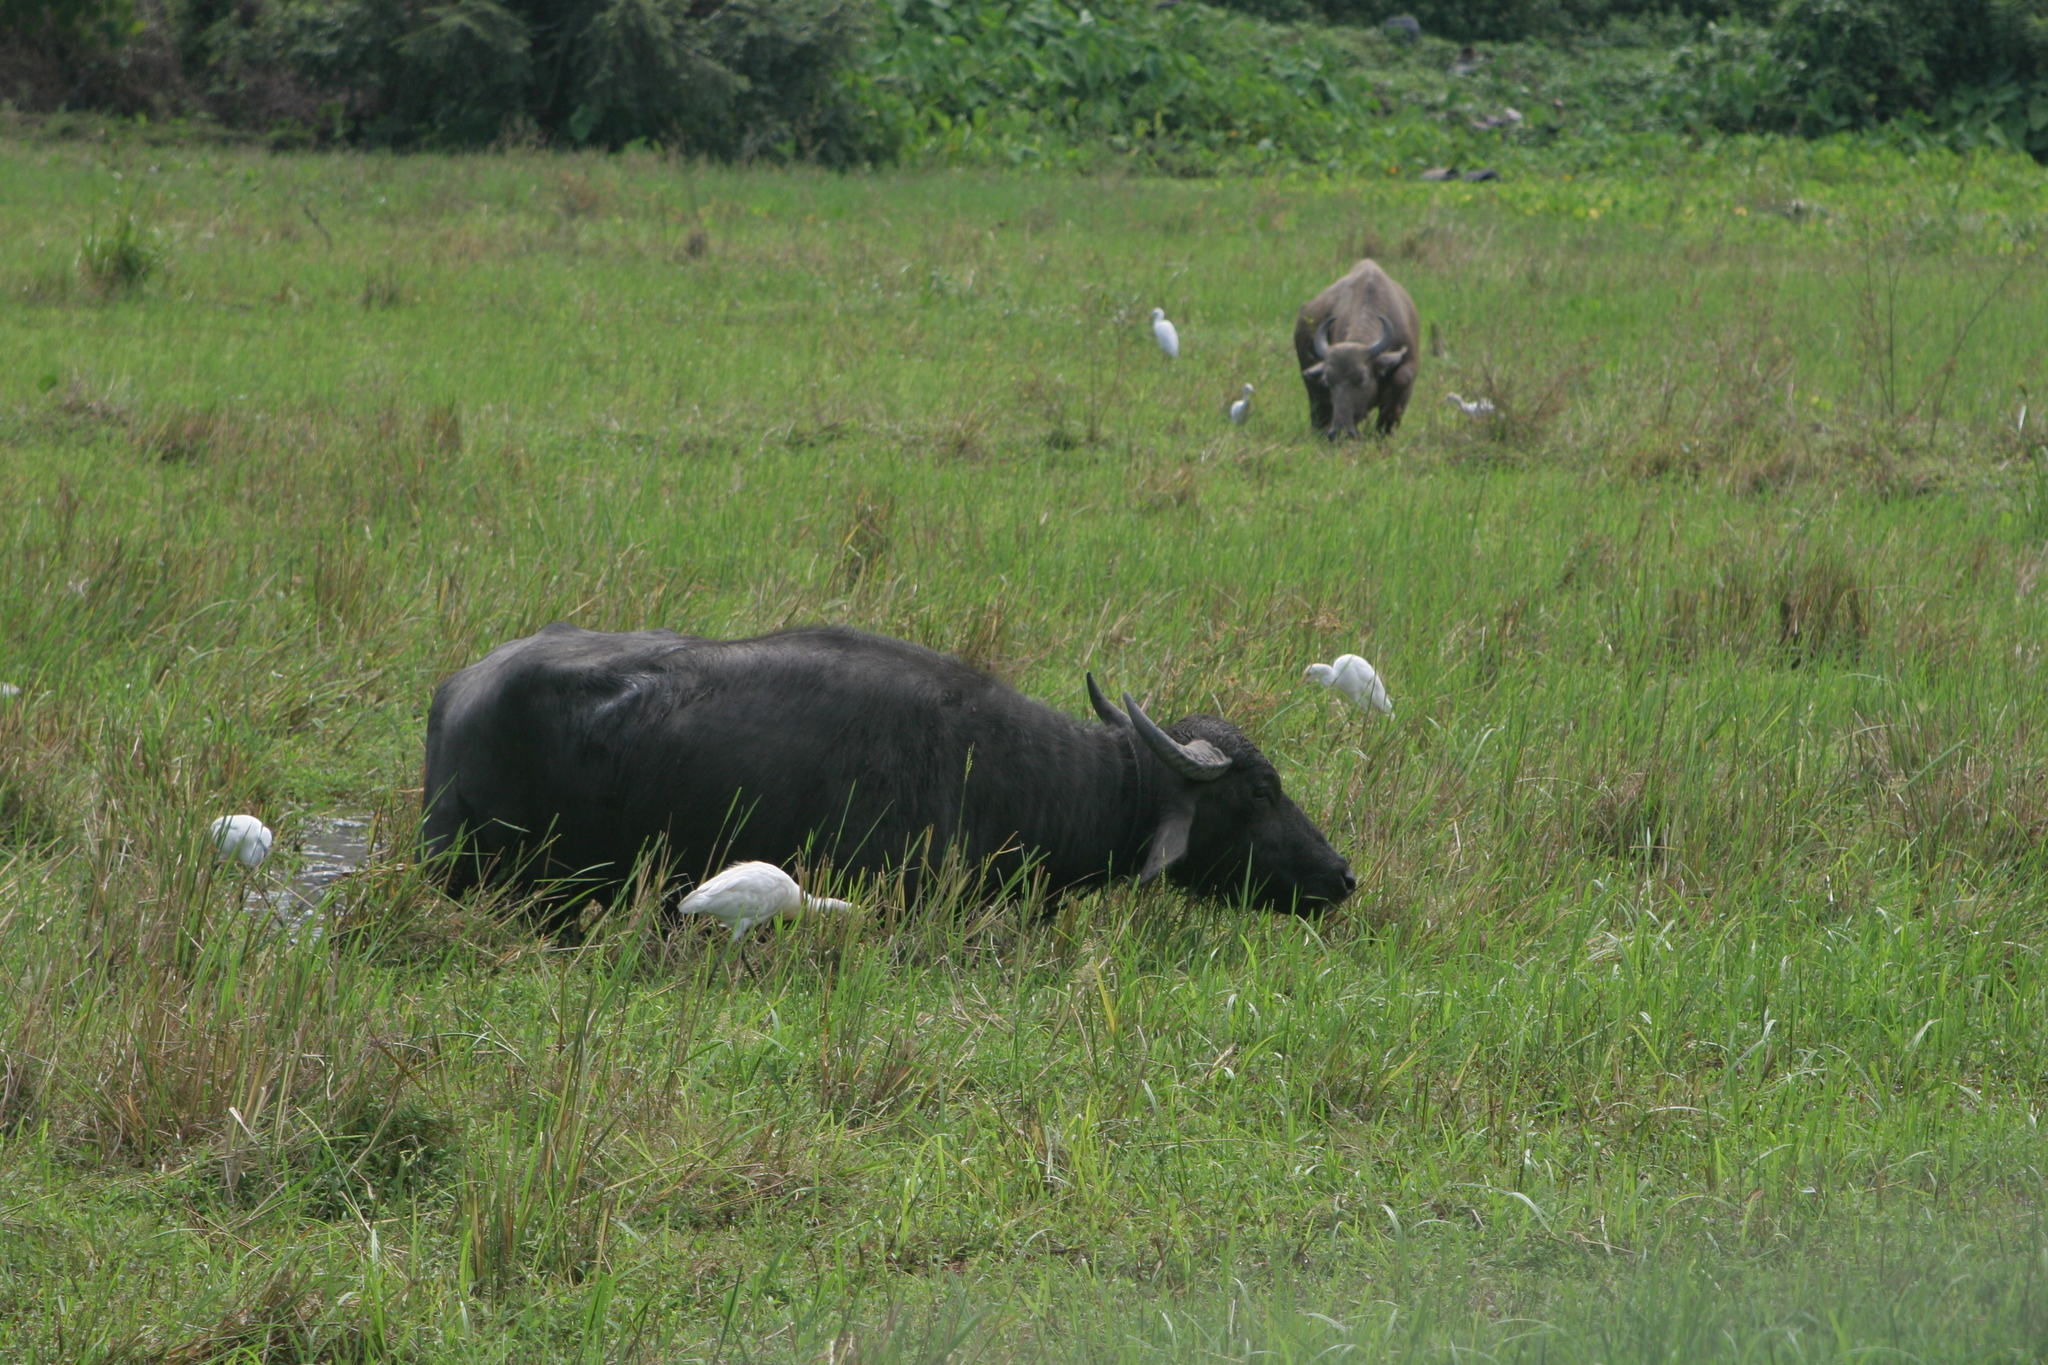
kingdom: Animalia
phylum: Chordata
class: Mammalia
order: Artiodactyla
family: Bovidae
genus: Bubalus
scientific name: Bubalus bubalis
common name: Water buffalo
